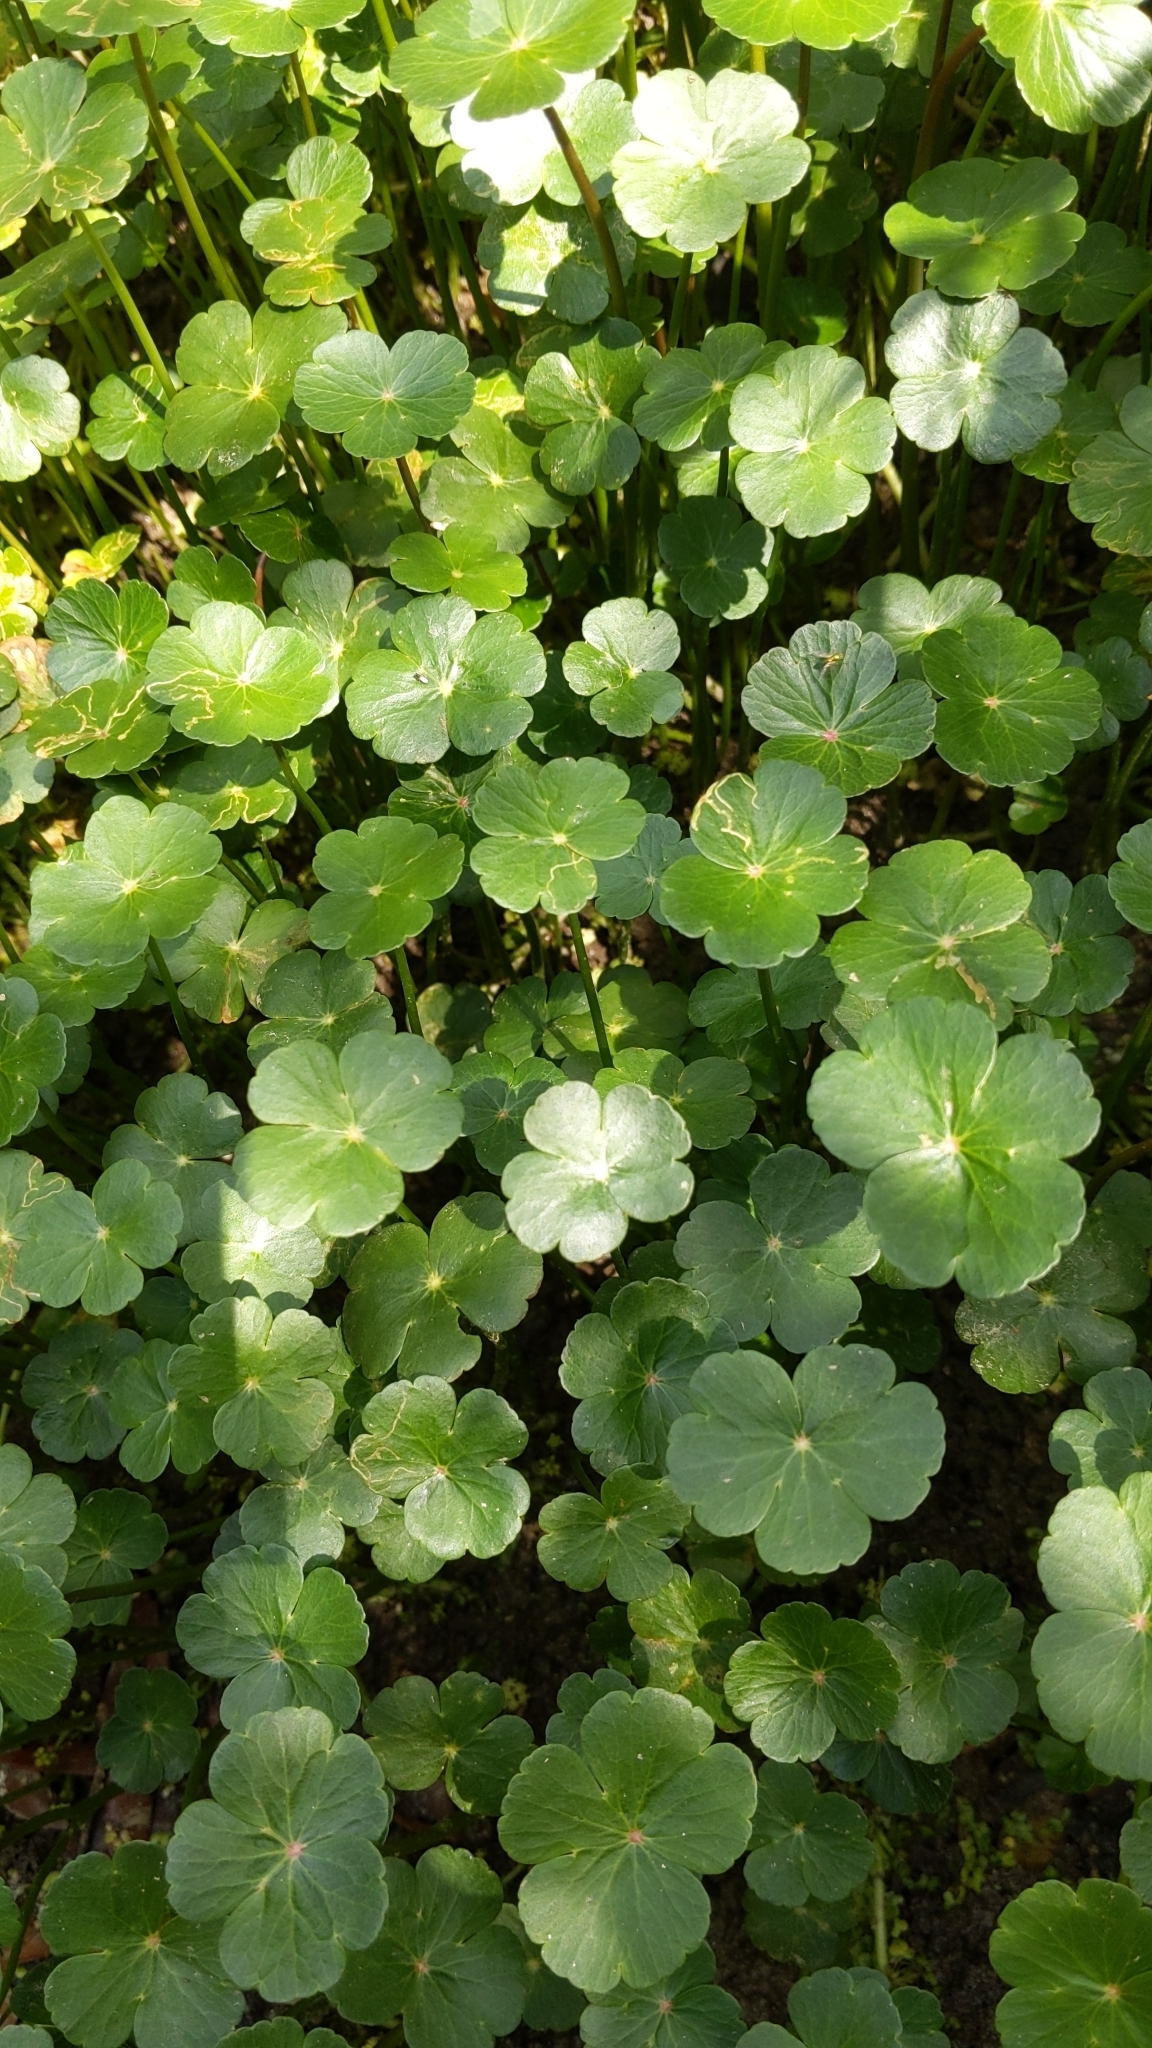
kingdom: Plantae
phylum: Tracheophyta
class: Magnoliopsida
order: Apiales
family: Araliaceae
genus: Hydrocotyle
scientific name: Hydrocotyle ranunculoides
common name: Floating pennywort
